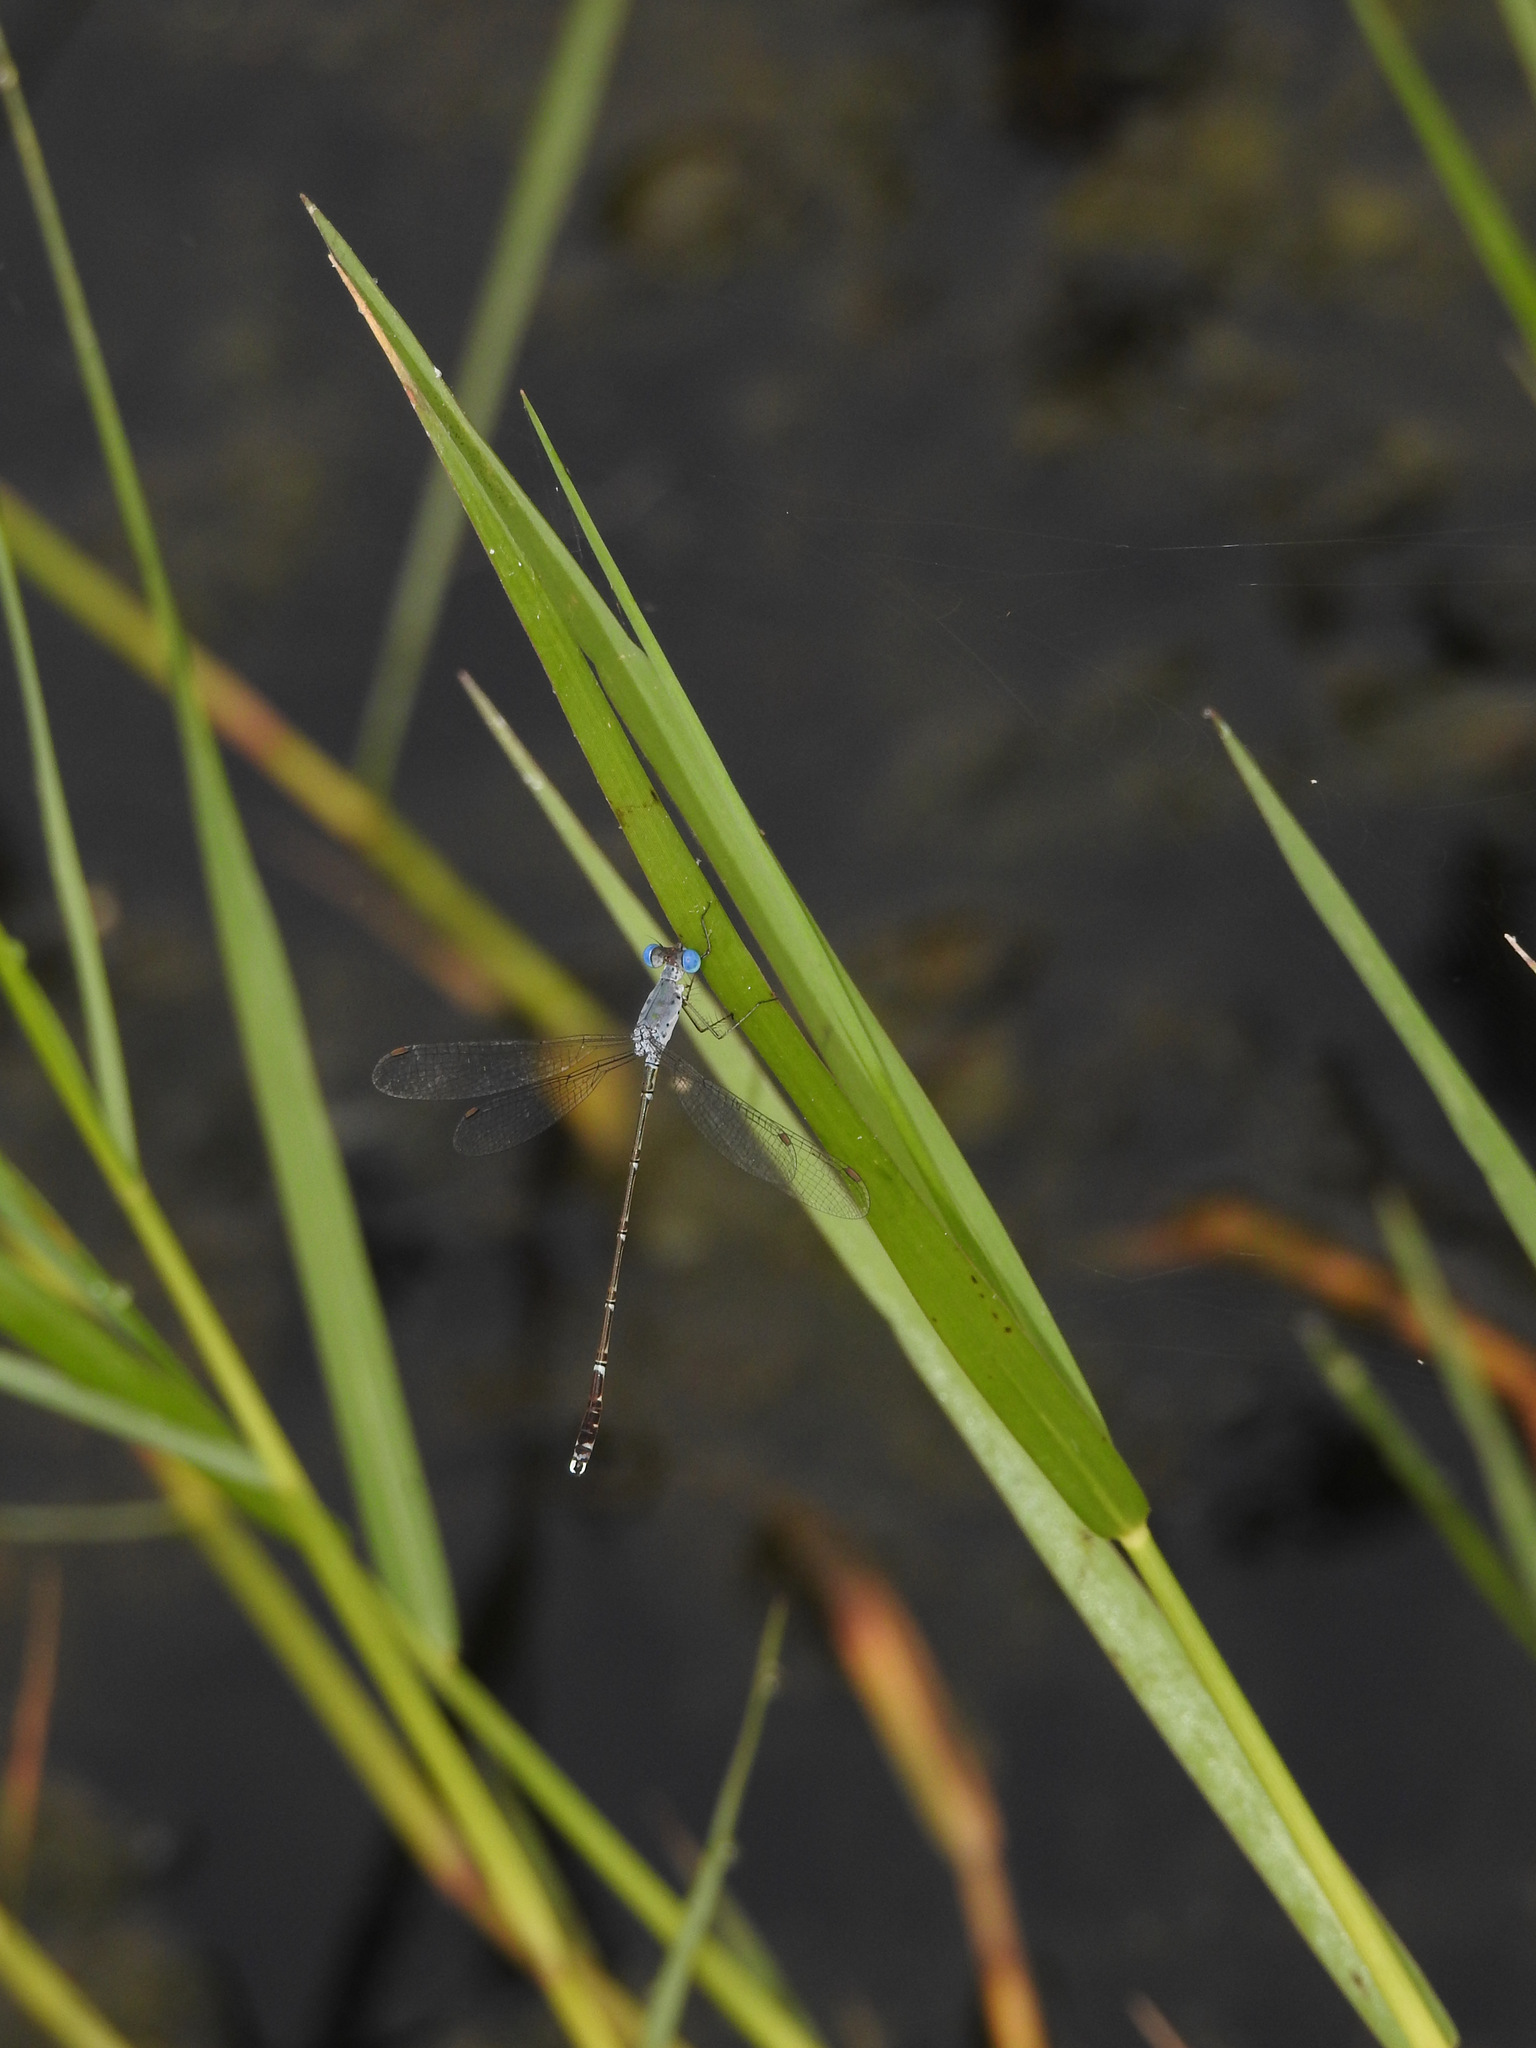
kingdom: Animalia
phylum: Arthropoda
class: Insecta
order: Odonata
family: Lestidae
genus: Lestes
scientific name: Lestes praemorsus
